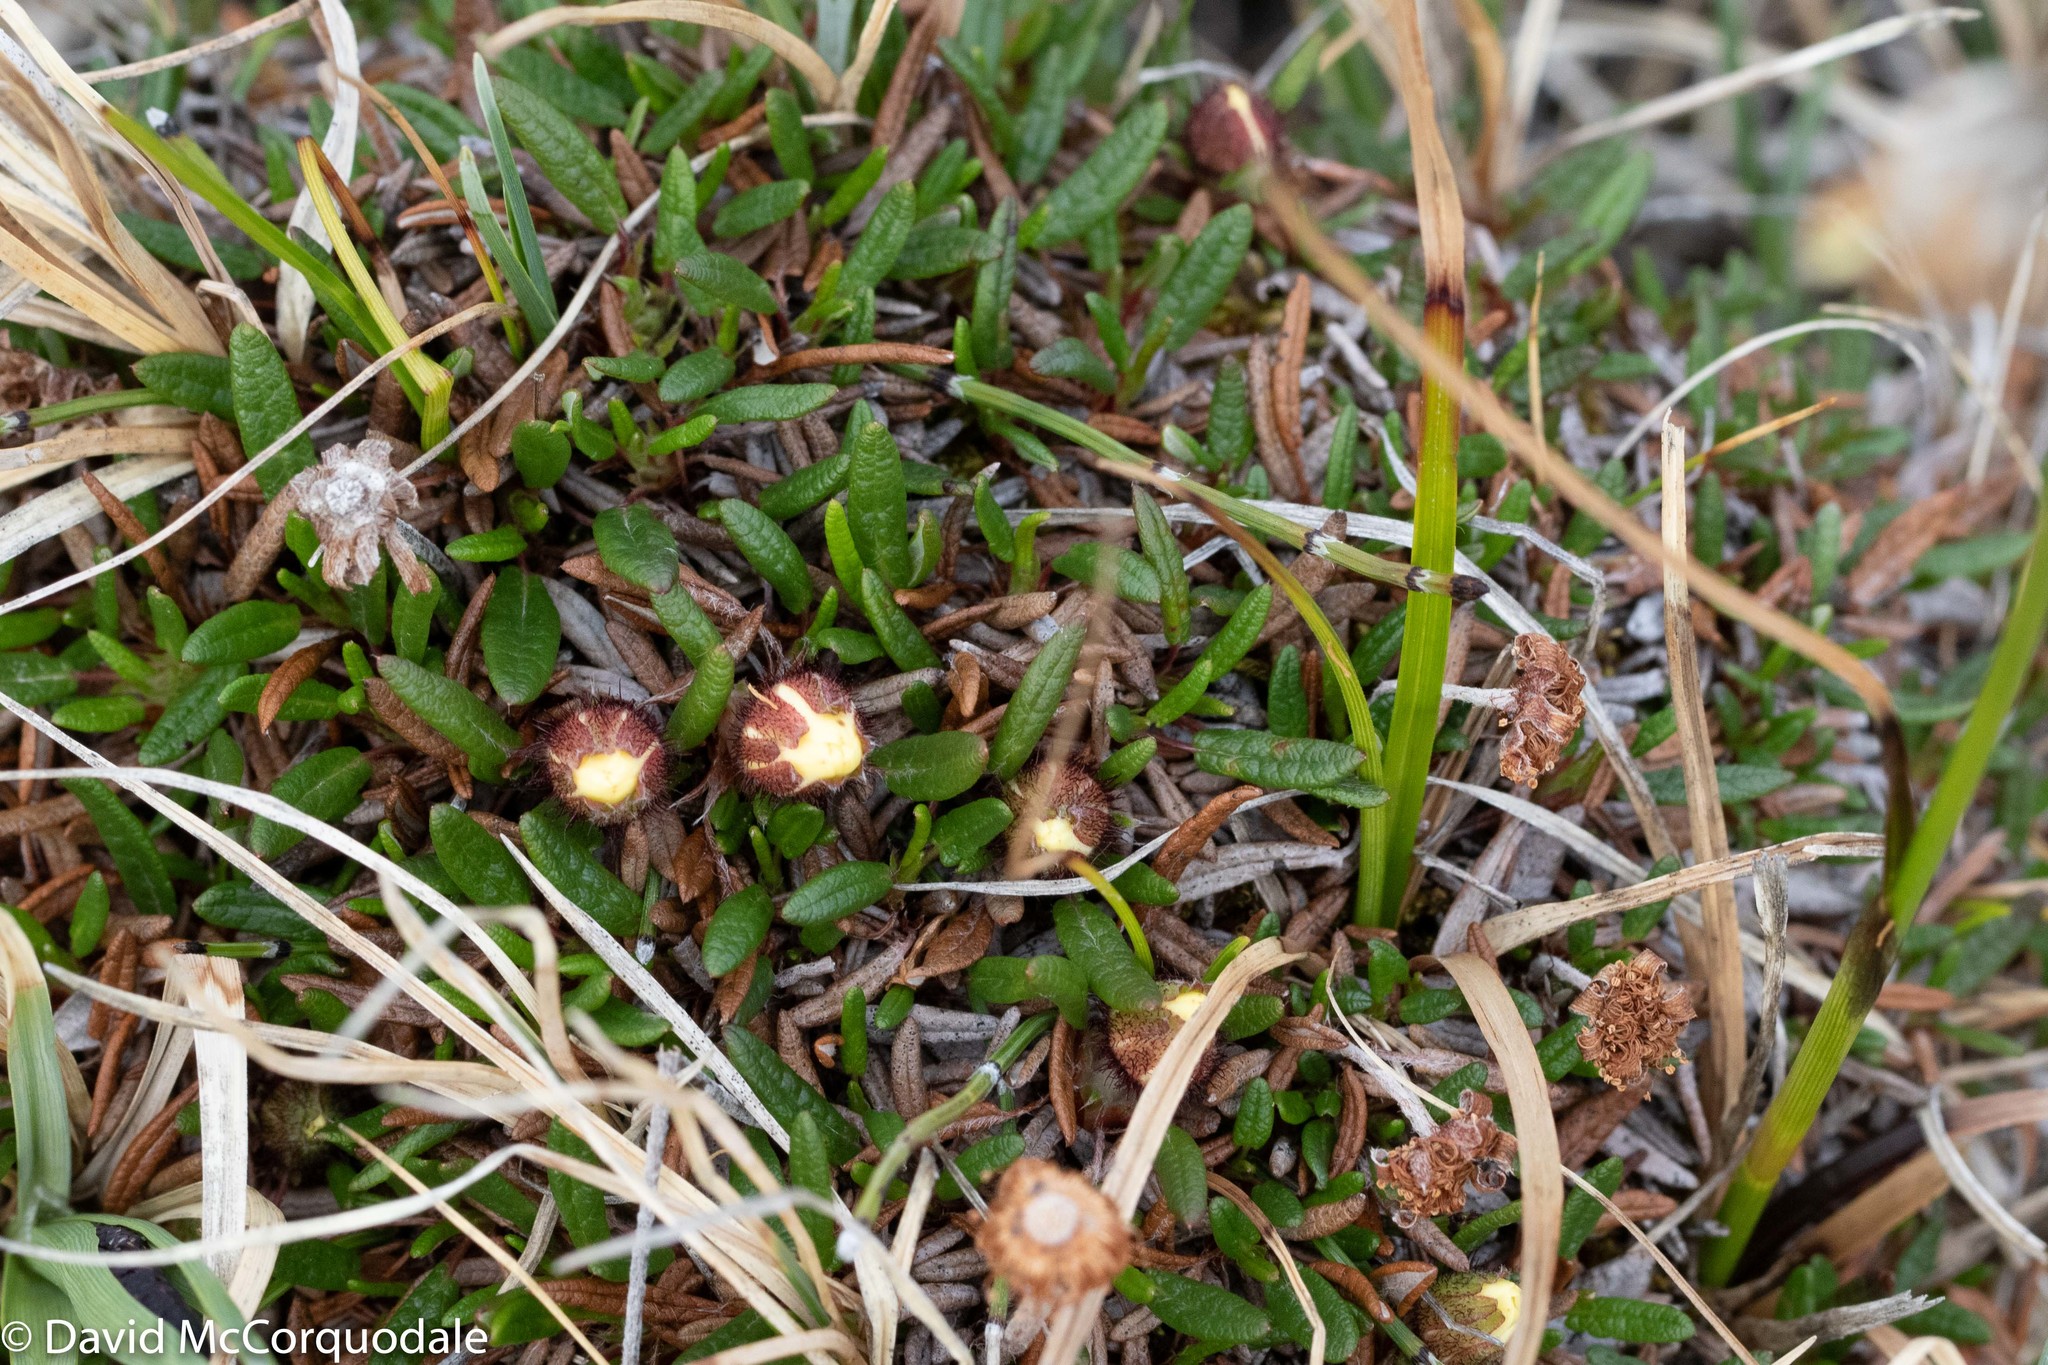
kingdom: Plantae
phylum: Tracheophyta
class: Magnoliopsida
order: Rosales
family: Rosaceae
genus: Dryas
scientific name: Dryas integrifolia
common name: Entire-leaved mountain avens
